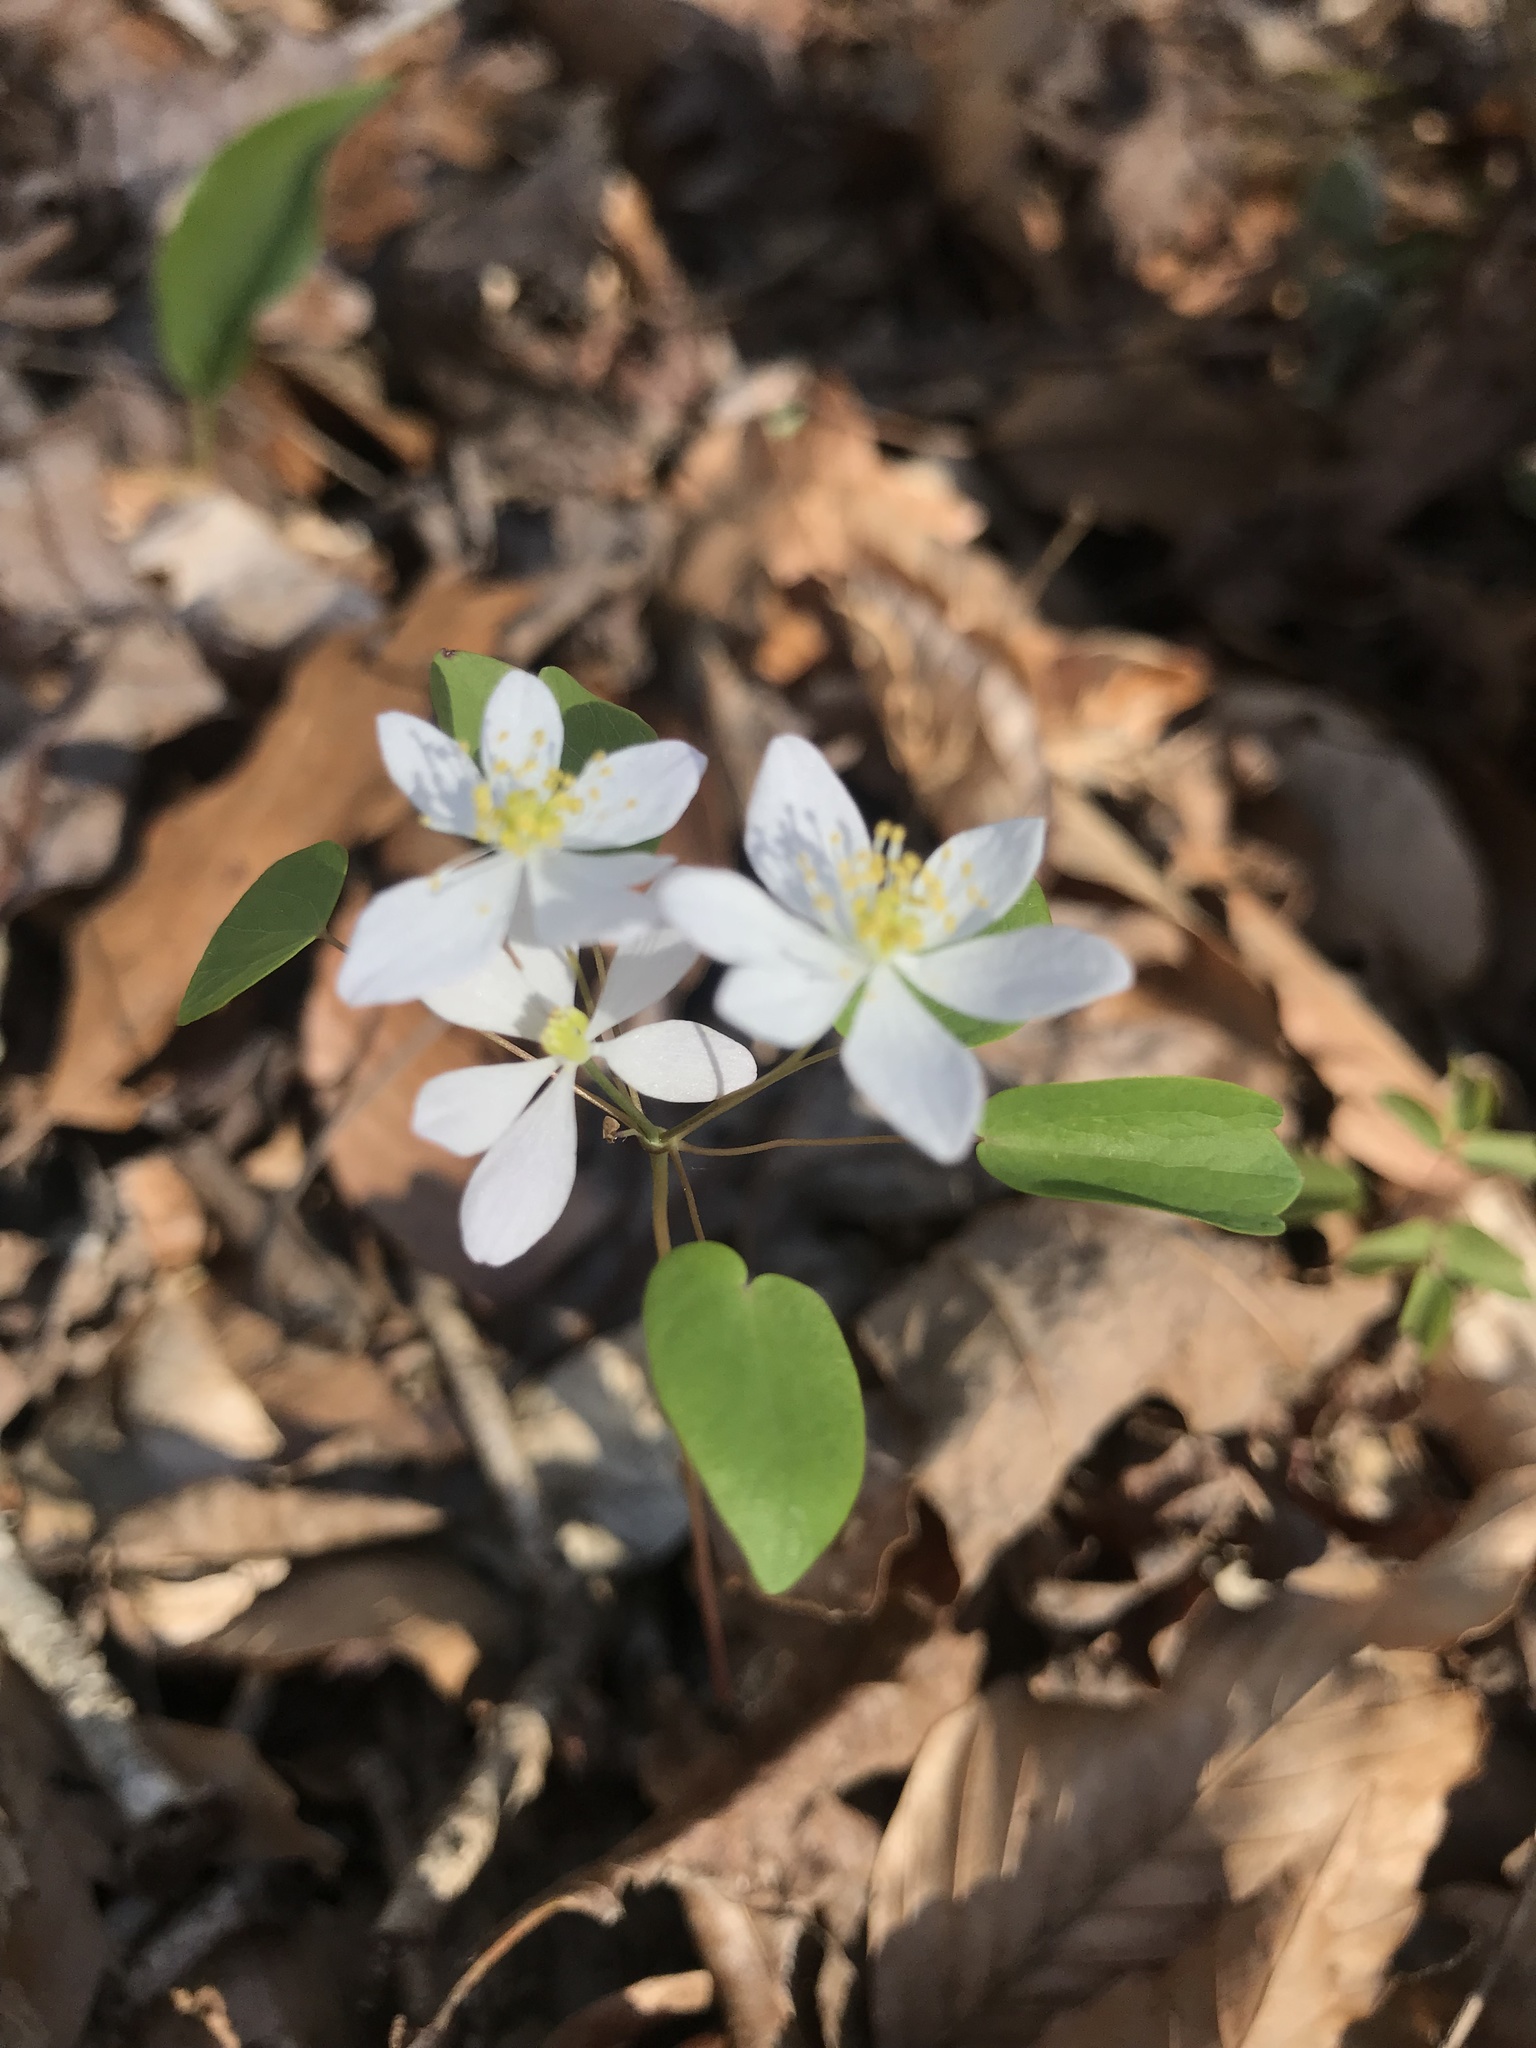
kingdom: Plantae
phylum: Tracheophyta
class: Magnoliopsida
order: Ranunculales
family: Ranunculaceae
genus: Thalictrum
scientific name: Thalictrum thalictroides
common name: Rue-anemone
